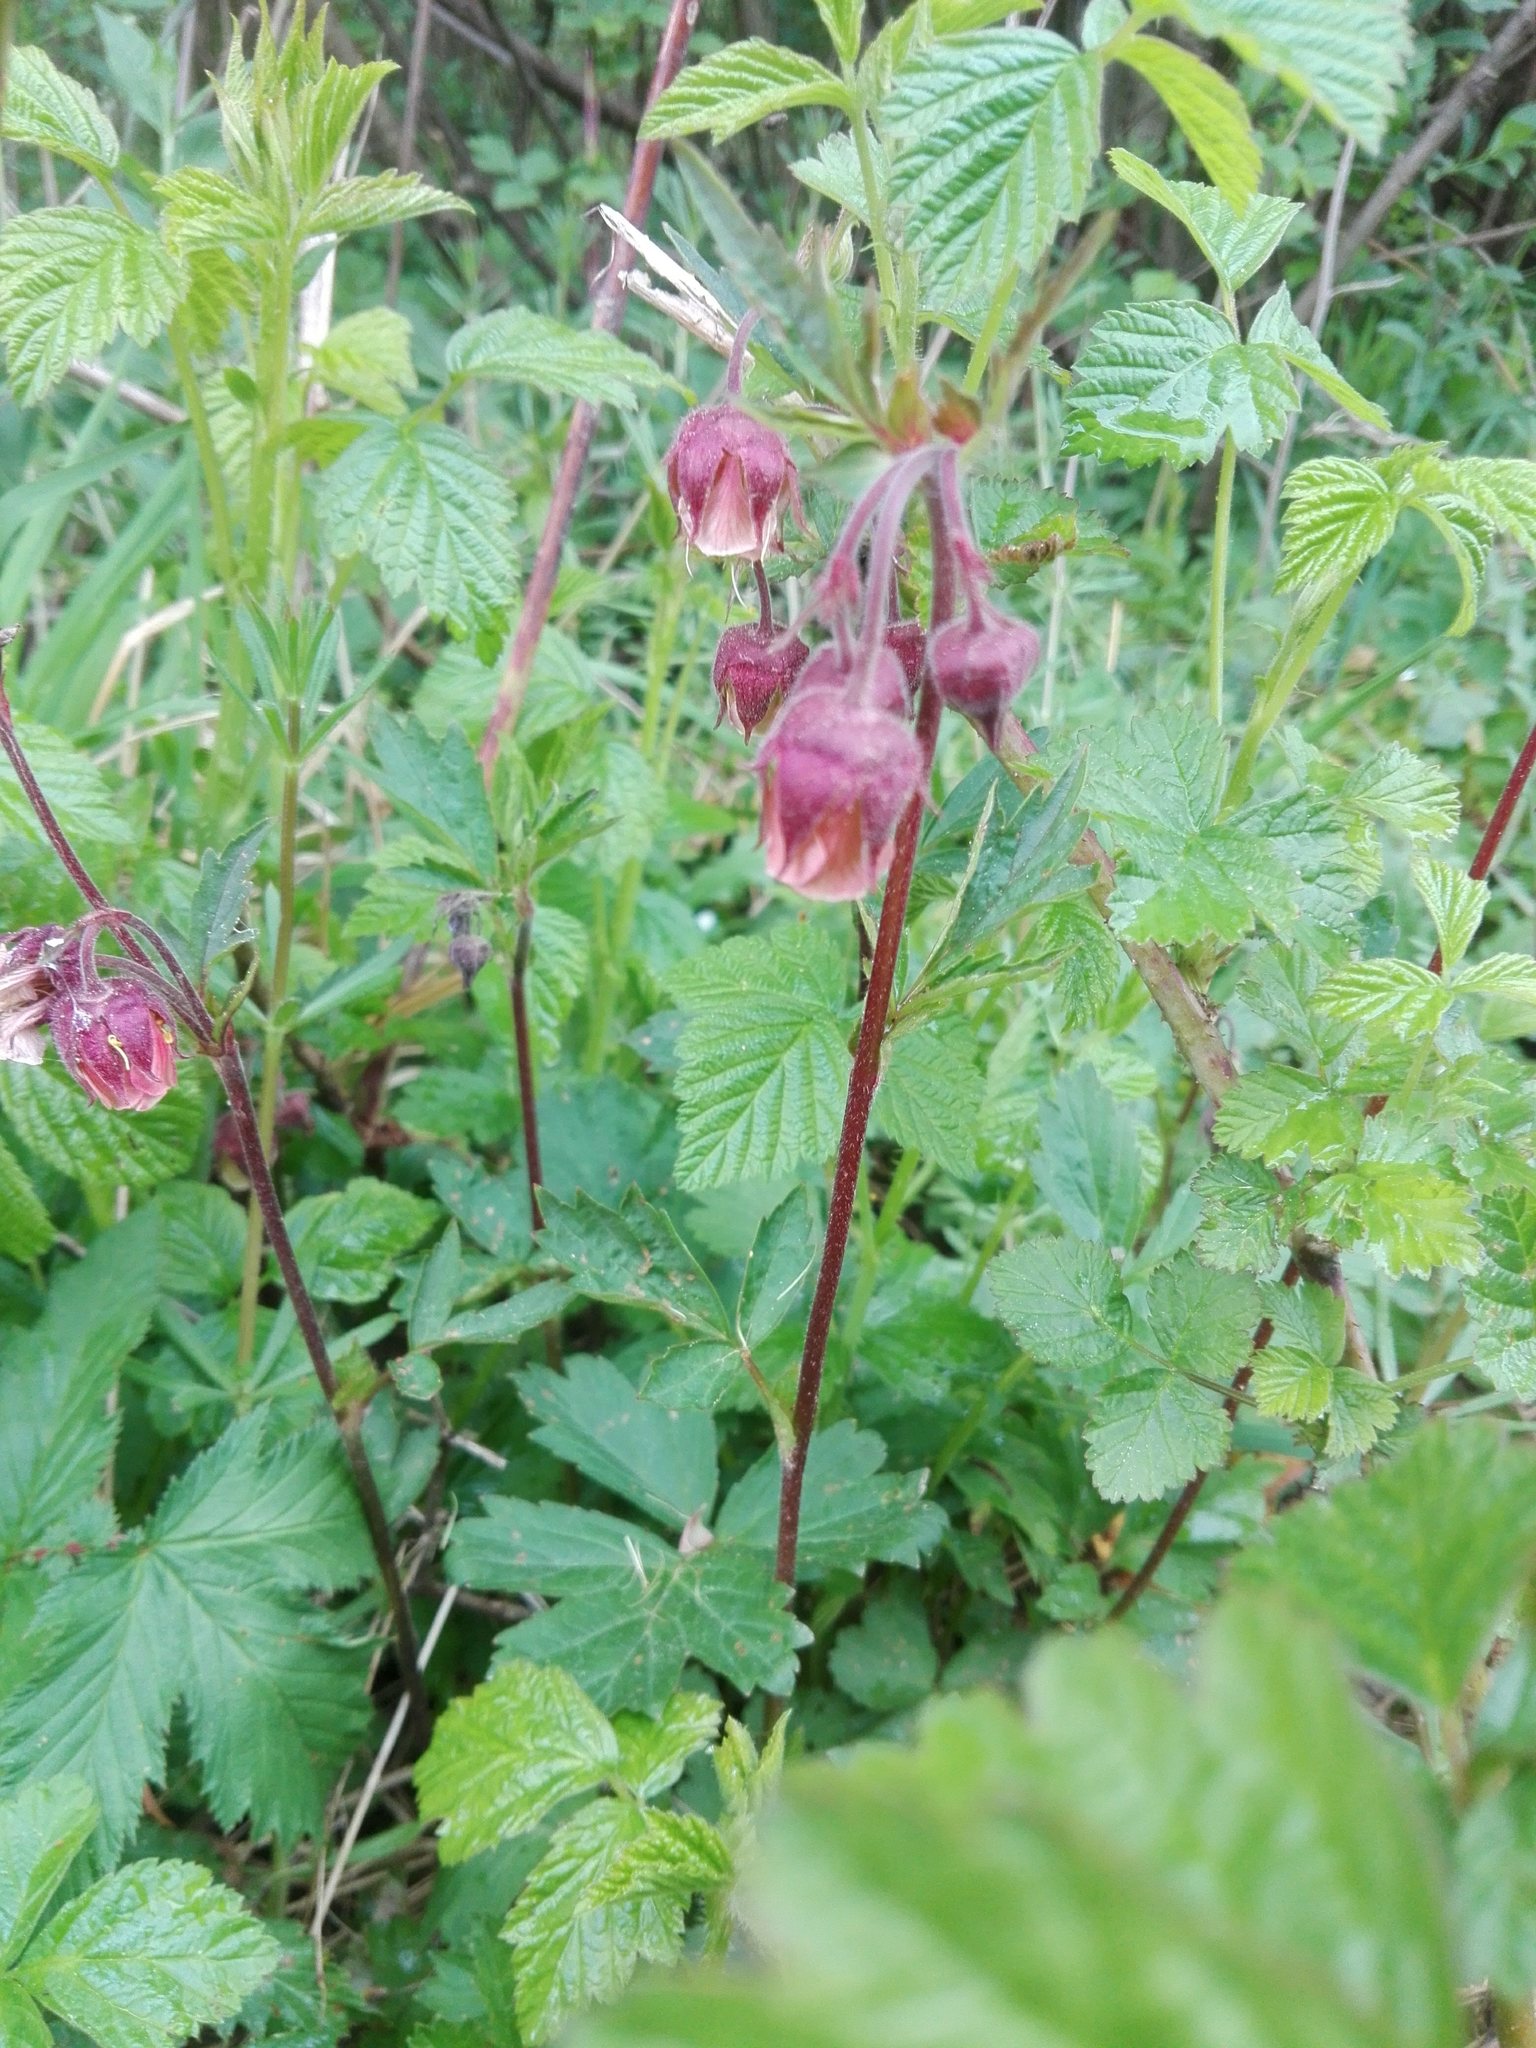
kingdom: Plantae
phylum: Tracheophyta
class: Magnoliopsida
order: Rosales
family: Rosaceae
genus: Geum
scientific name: Geum rivale
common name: Water avens
